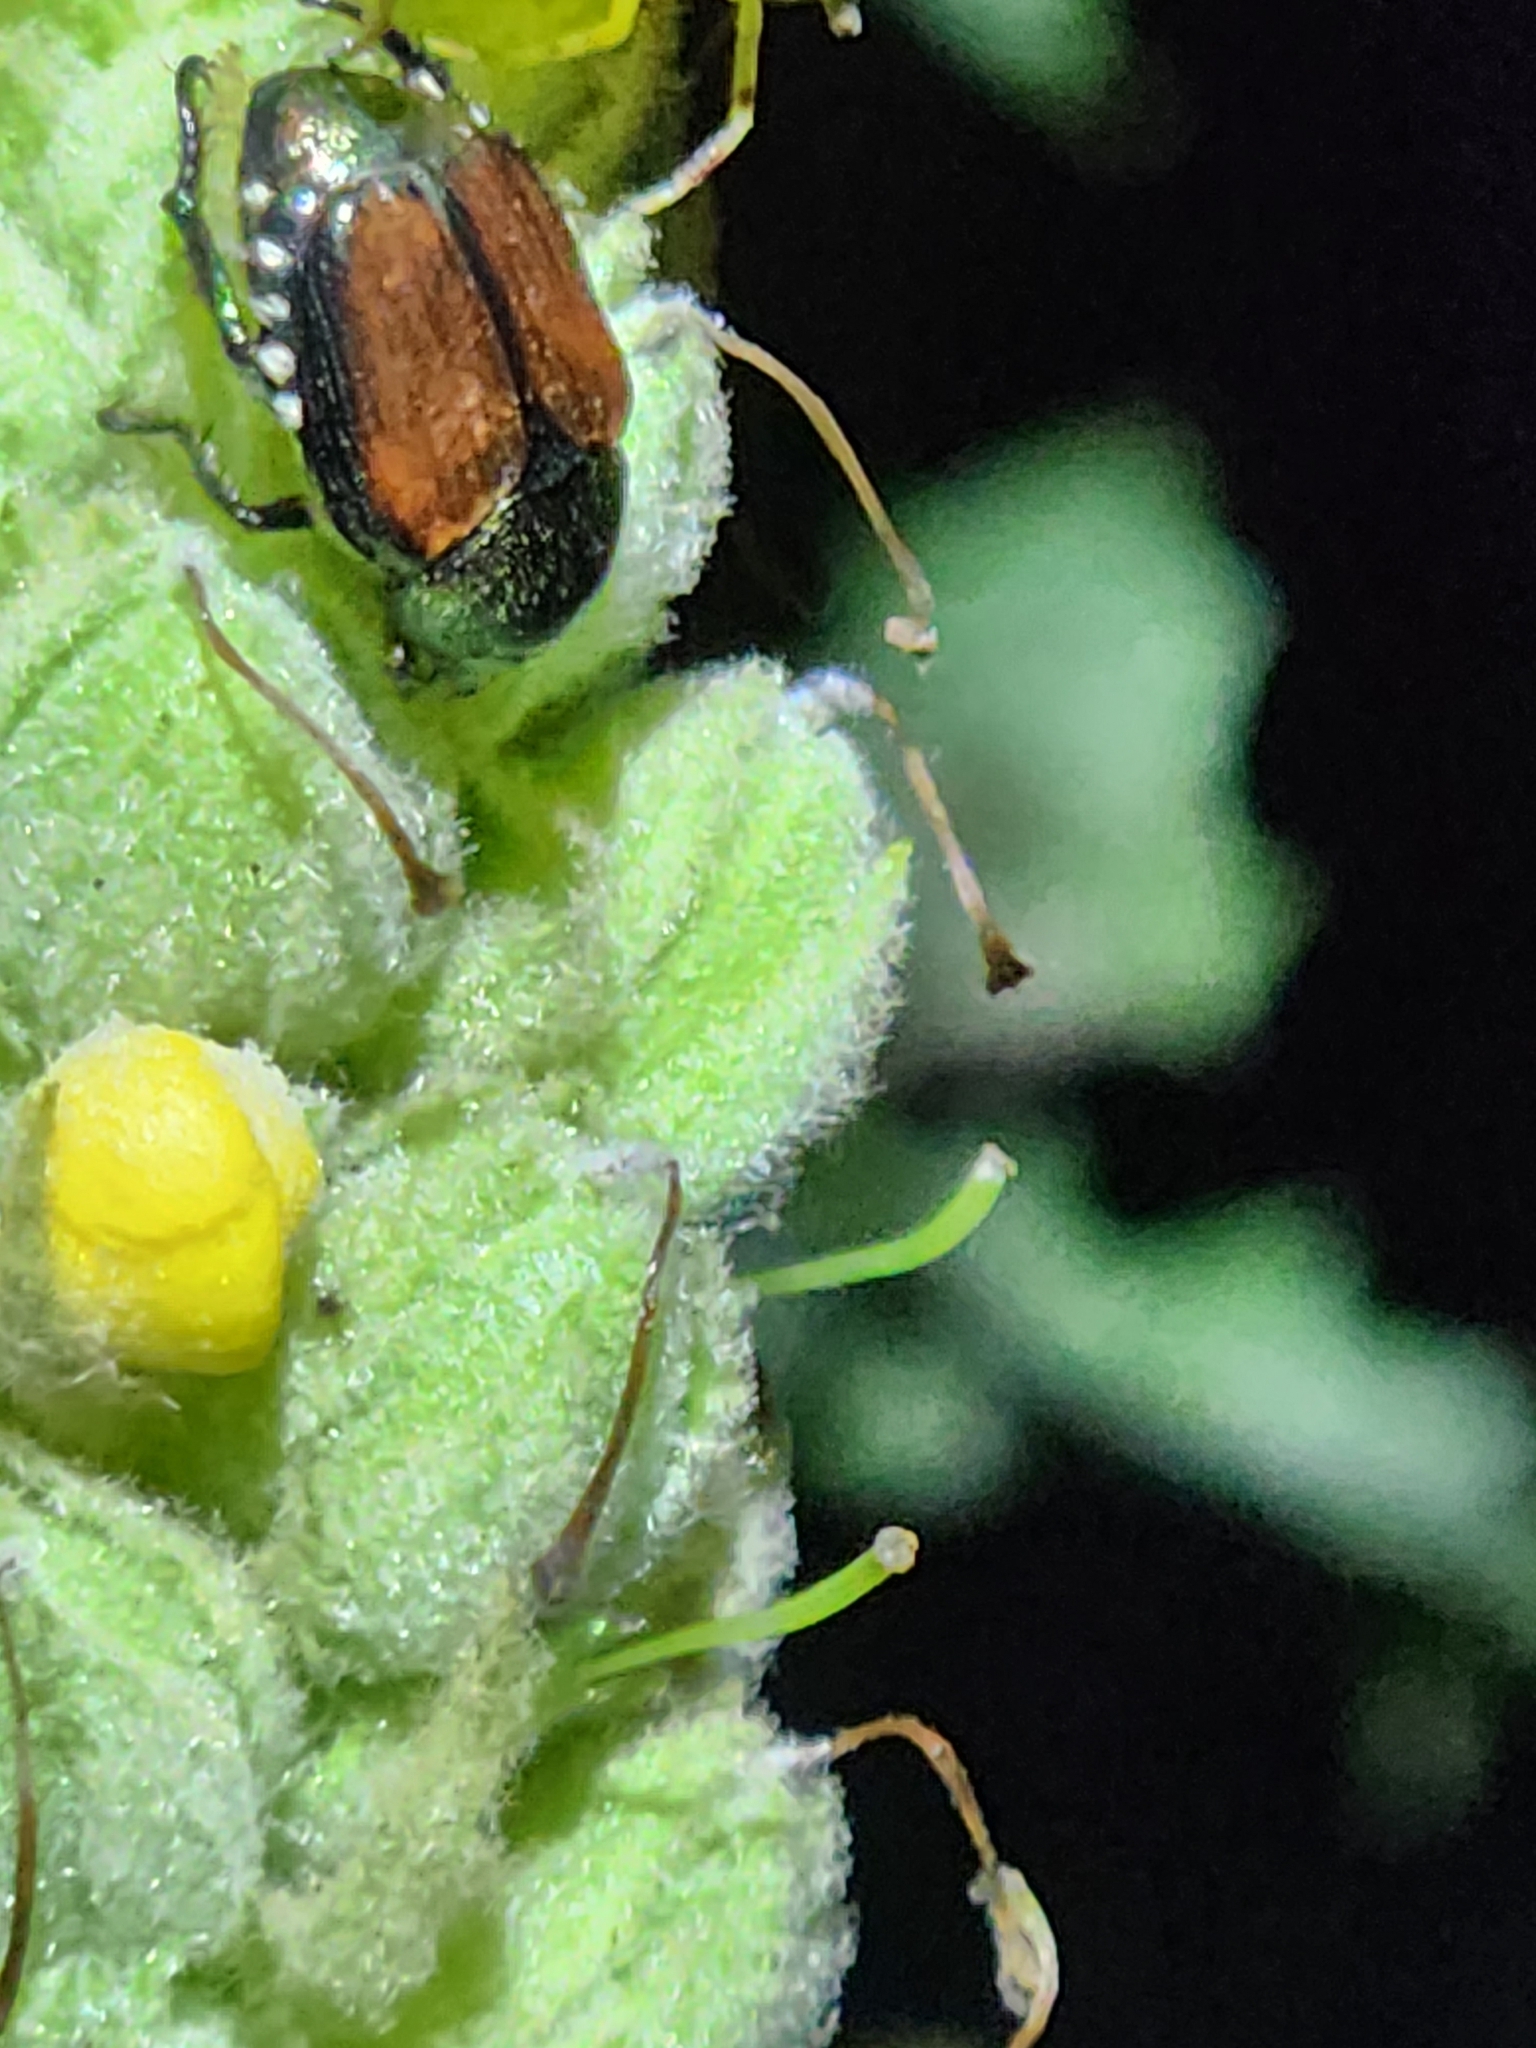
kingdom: Animalia
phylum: Arthropoda
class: Insecta
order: Coleoptera
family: Scarabaeidae
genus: Popillia
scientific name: Popillia japonica
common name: Japanese beetle
